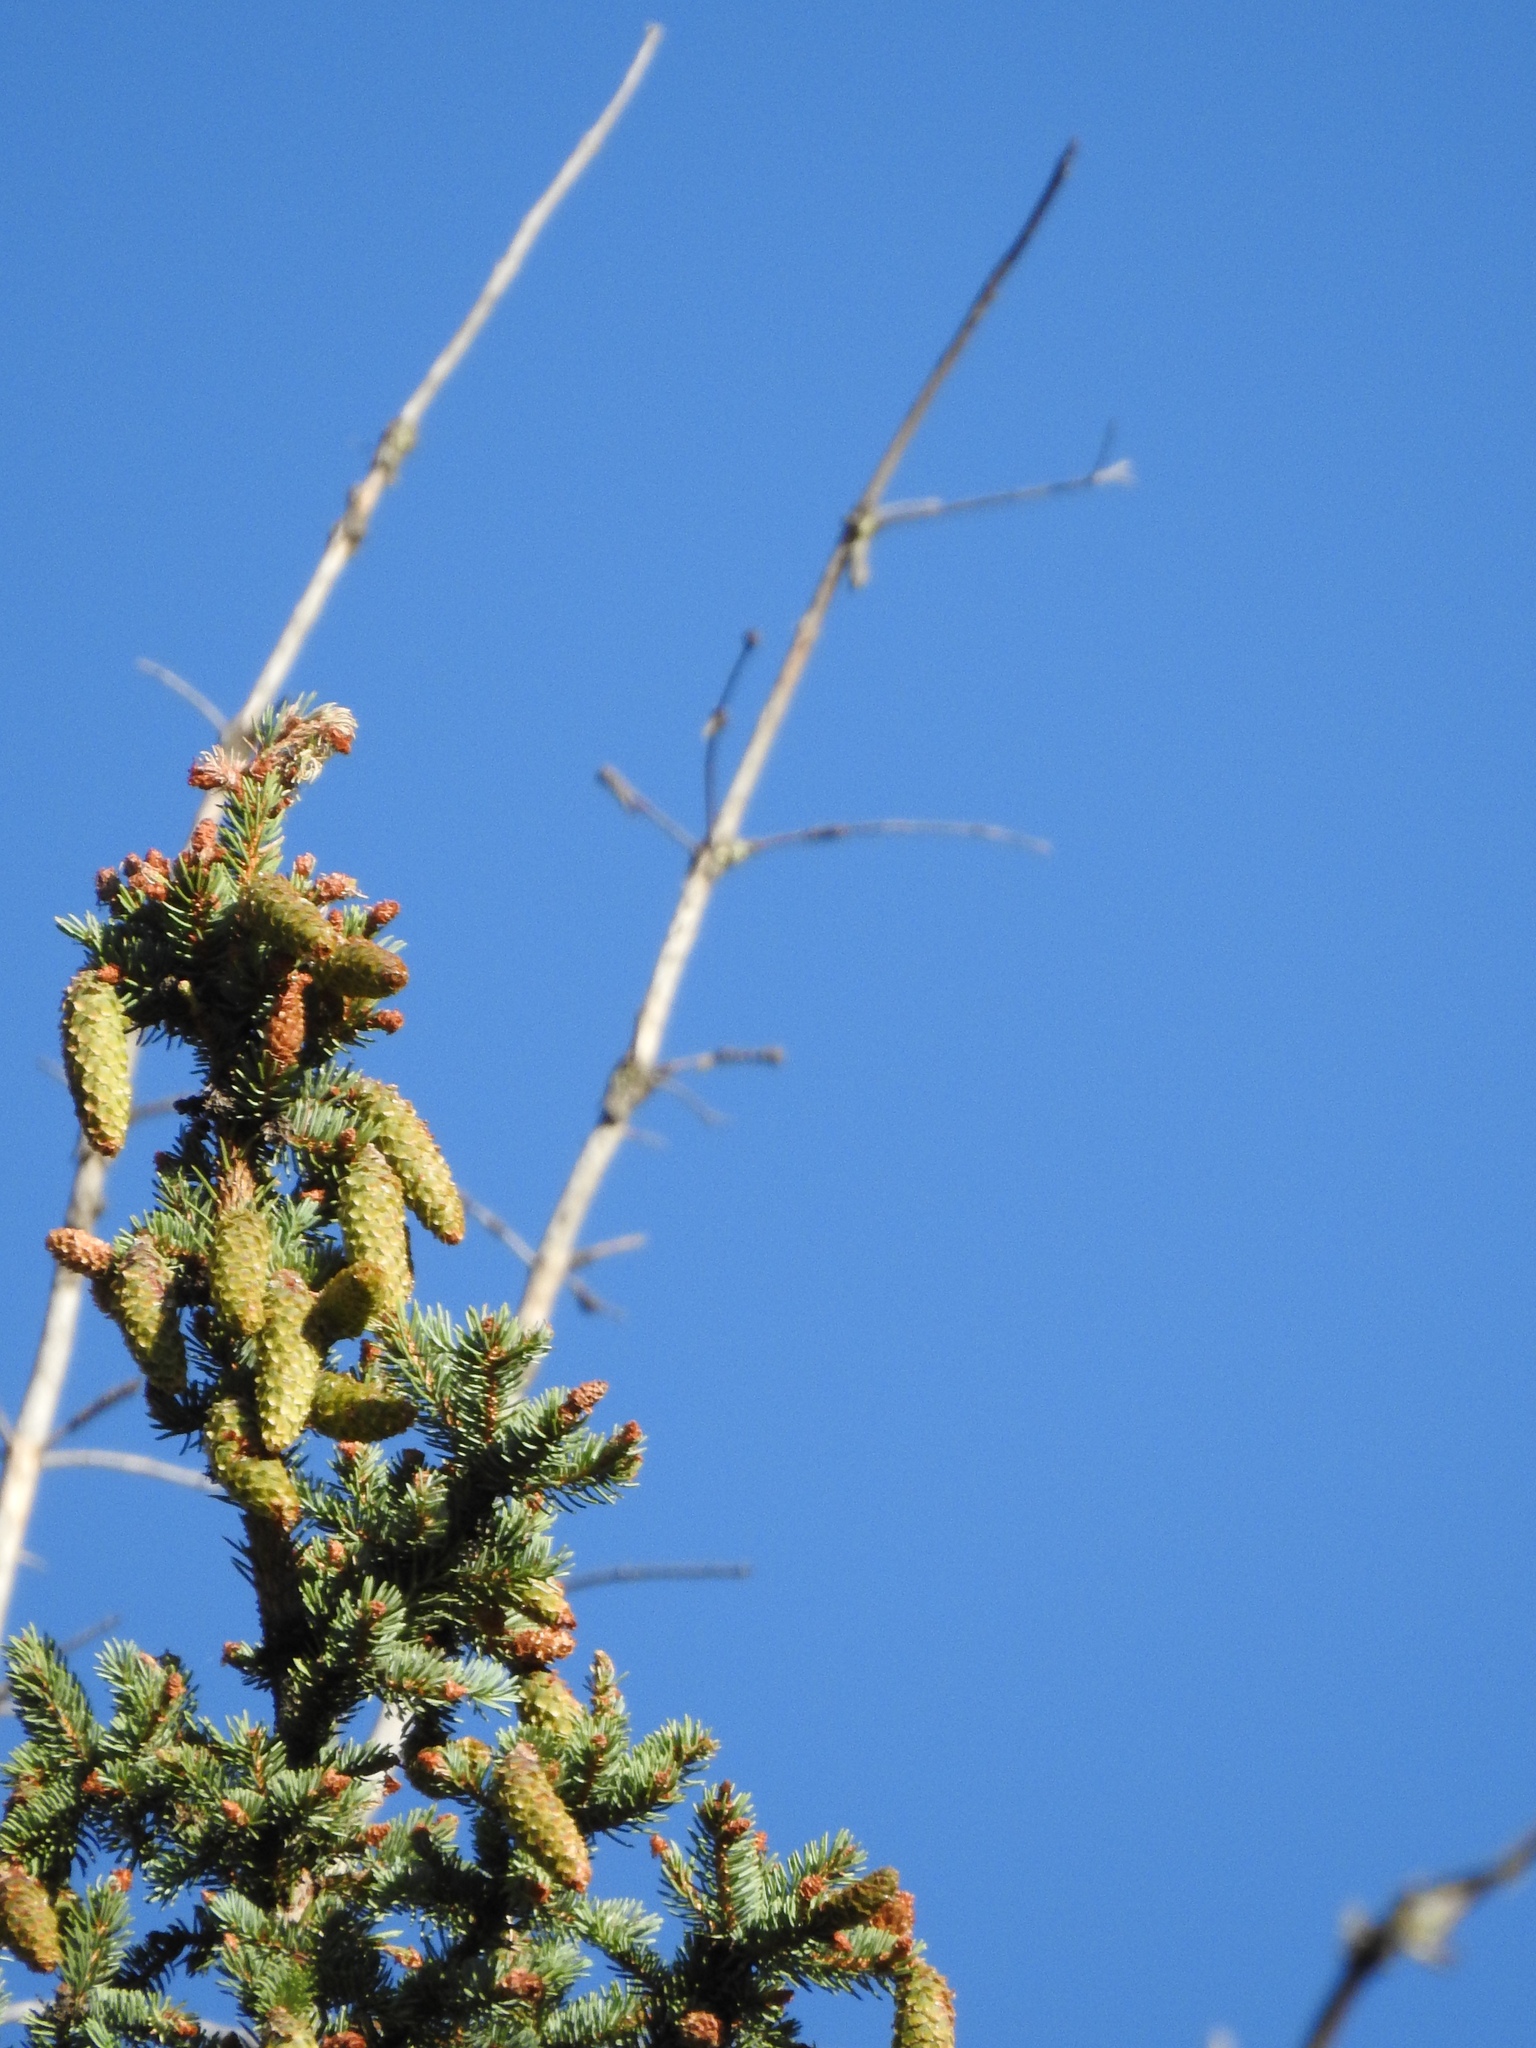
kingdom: Plantae
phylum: Tracheophyta
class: Pinopsida
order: Pinales
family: Pinaceae
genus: Picea
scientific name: Picea engelmannii
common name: Engelmann spruce
